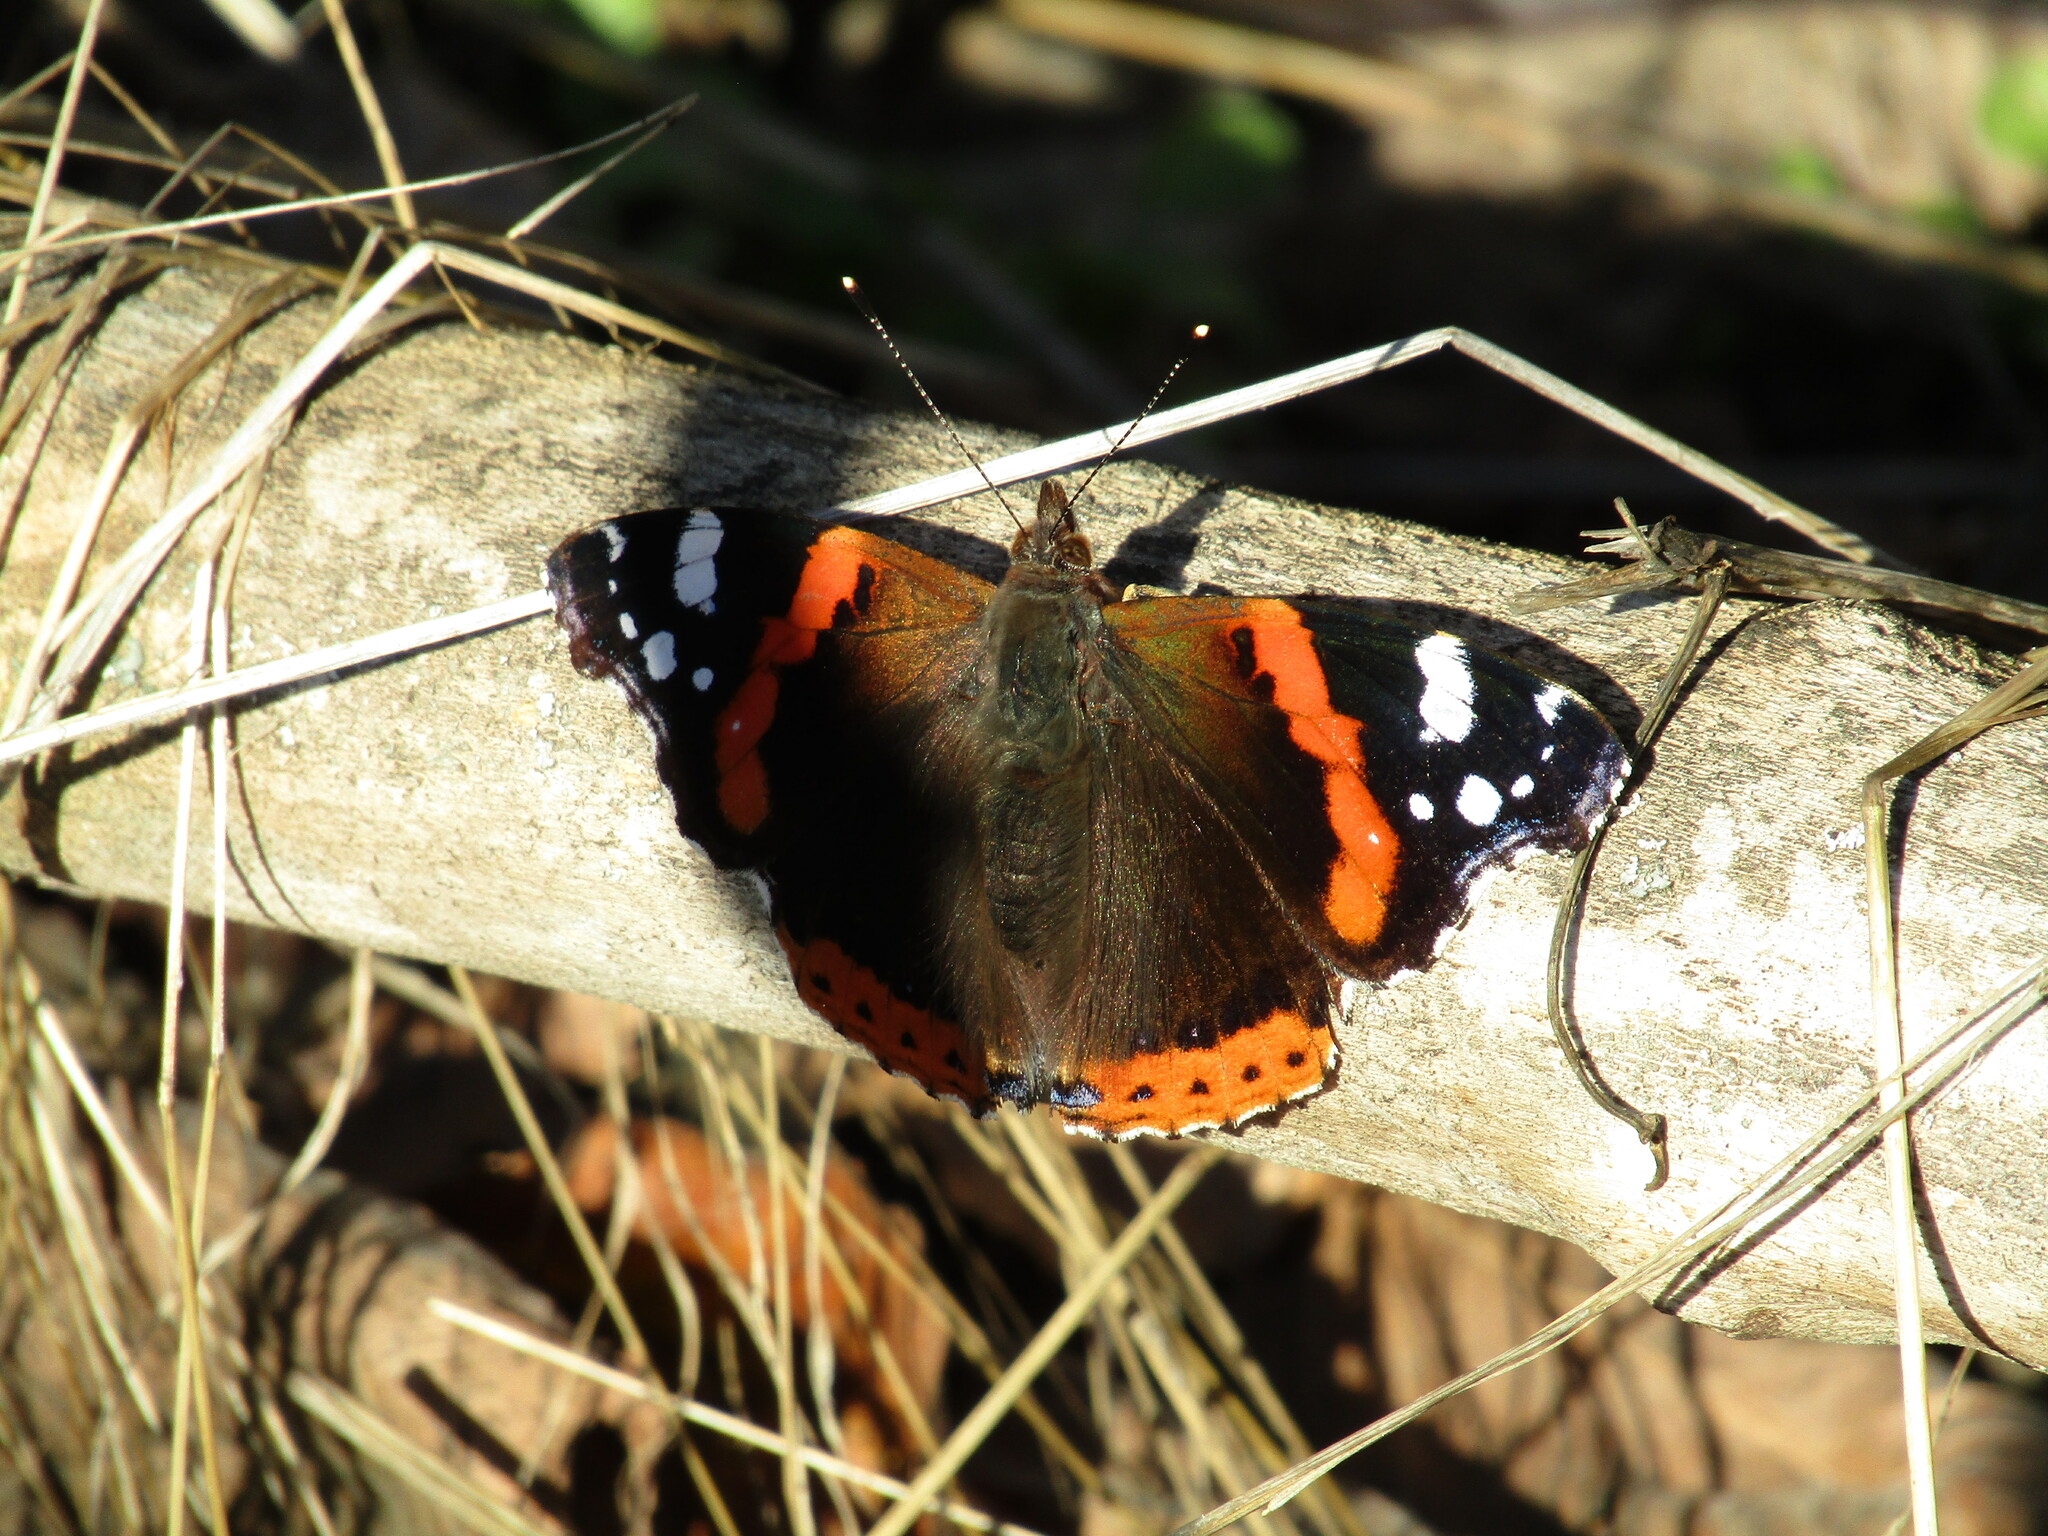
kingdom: Animalia
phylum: Arthropoda
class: Insecta
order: Lepidoptera
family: Nymphalidae
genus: Vanessa
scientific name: Vanessa atalanta
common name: Red admiral
